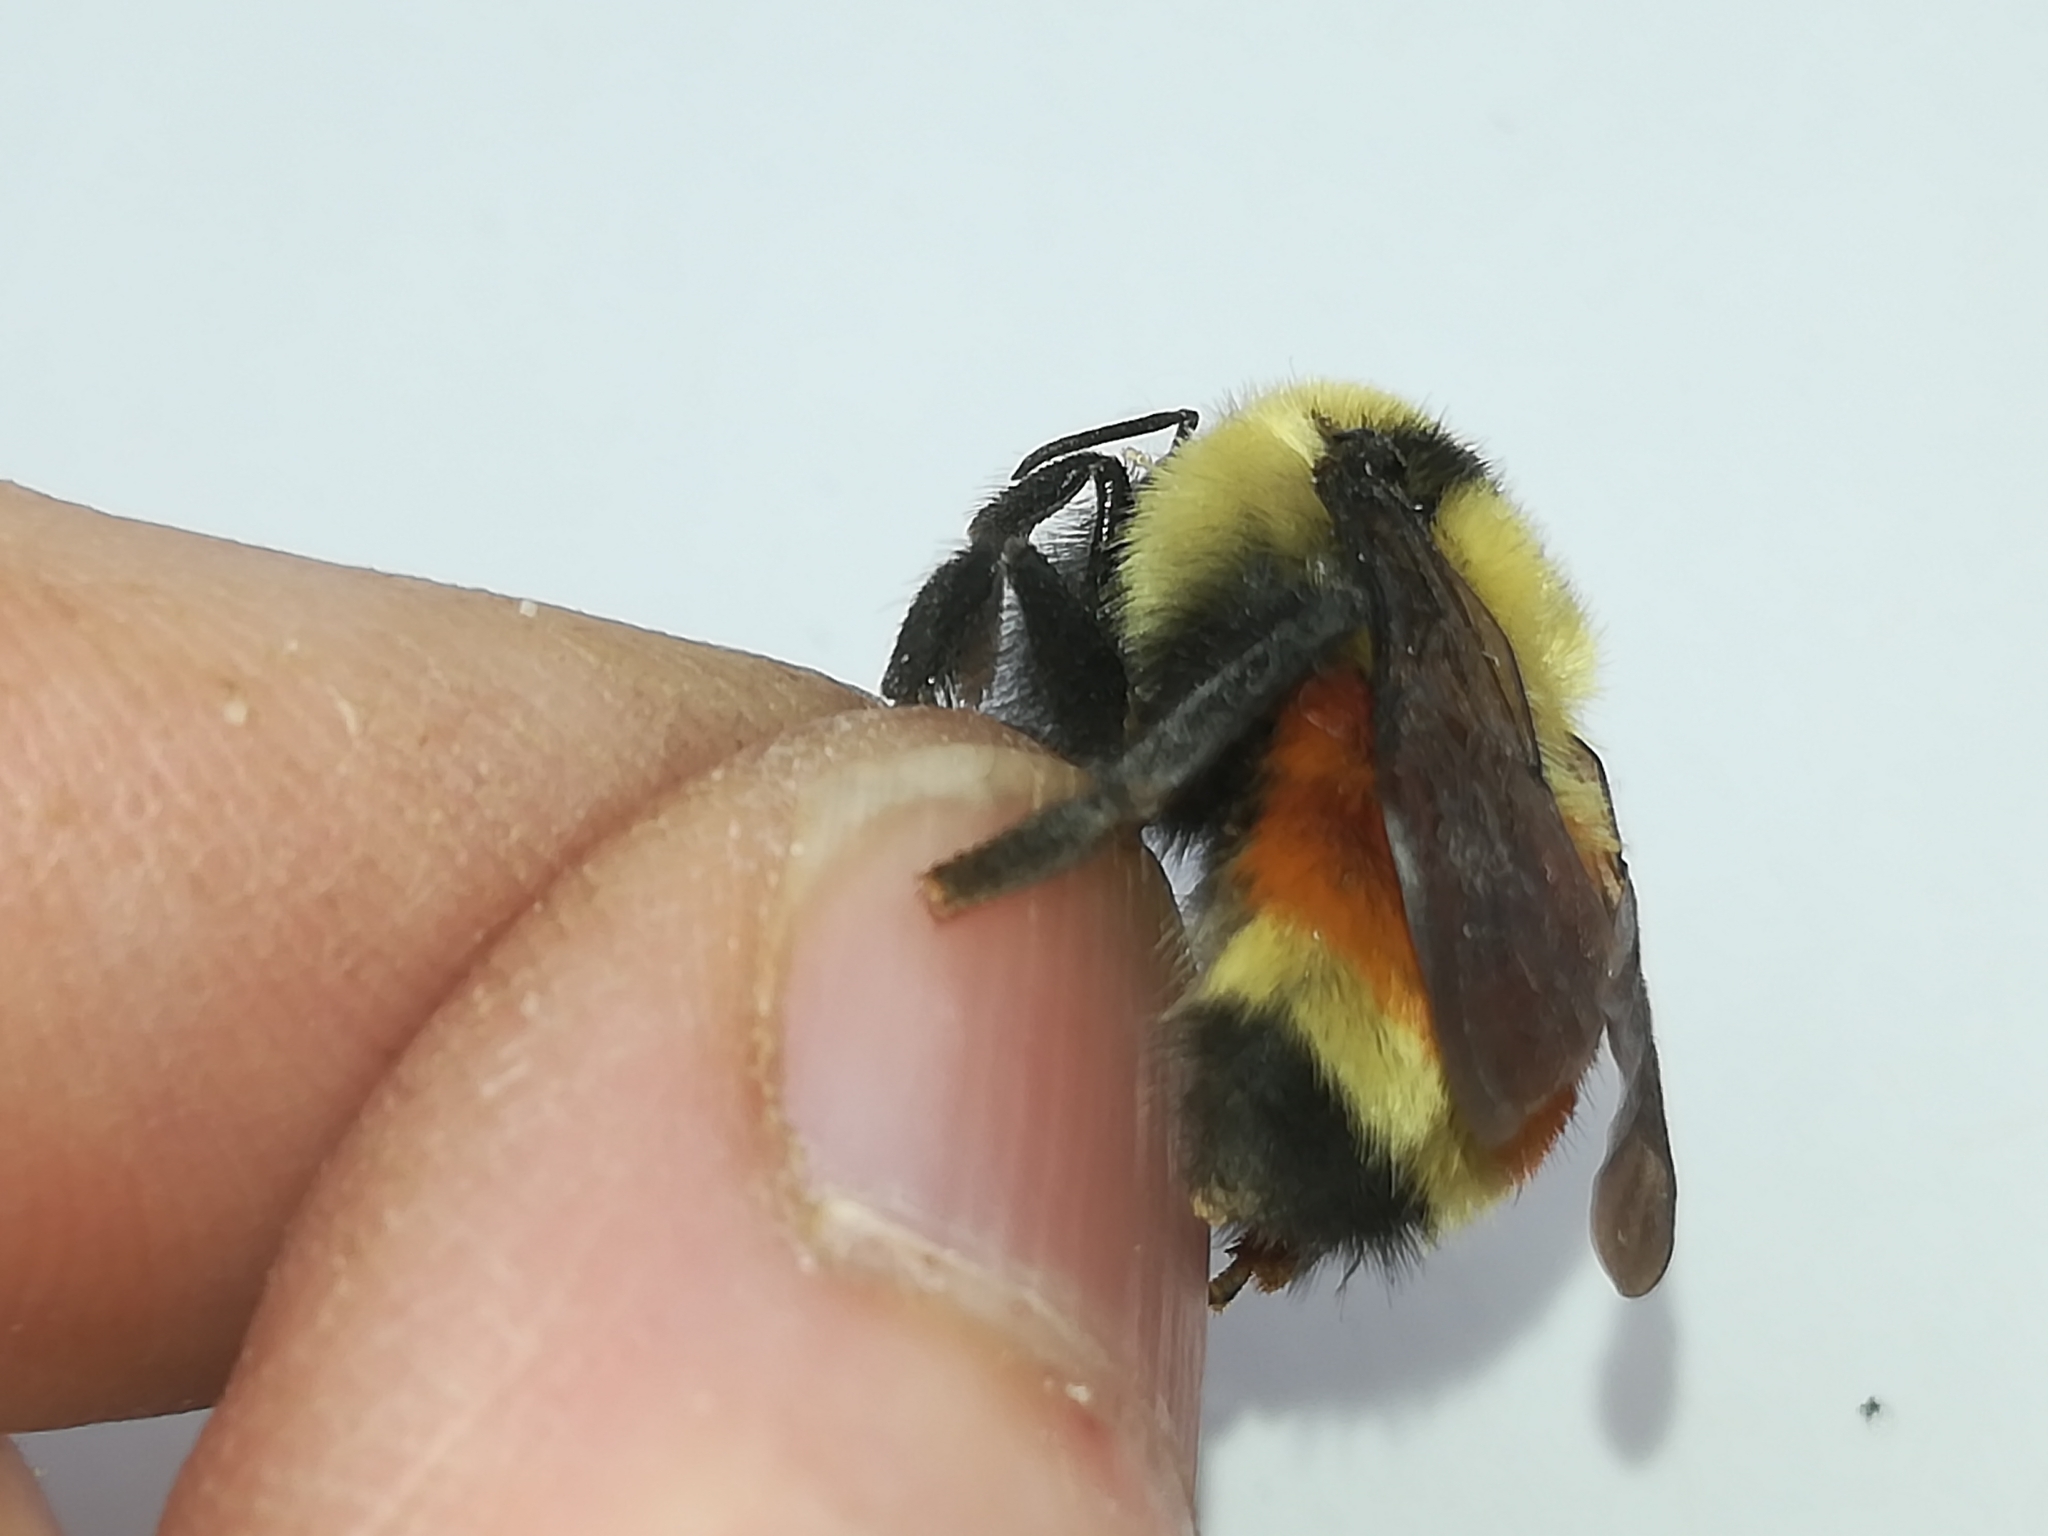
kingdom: Animalia
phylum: Arthropoda
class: Insecta
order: Hymenoptera
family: Apidae
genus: Bombus
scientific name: Bombus huntii
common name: Hunt bumble bee
